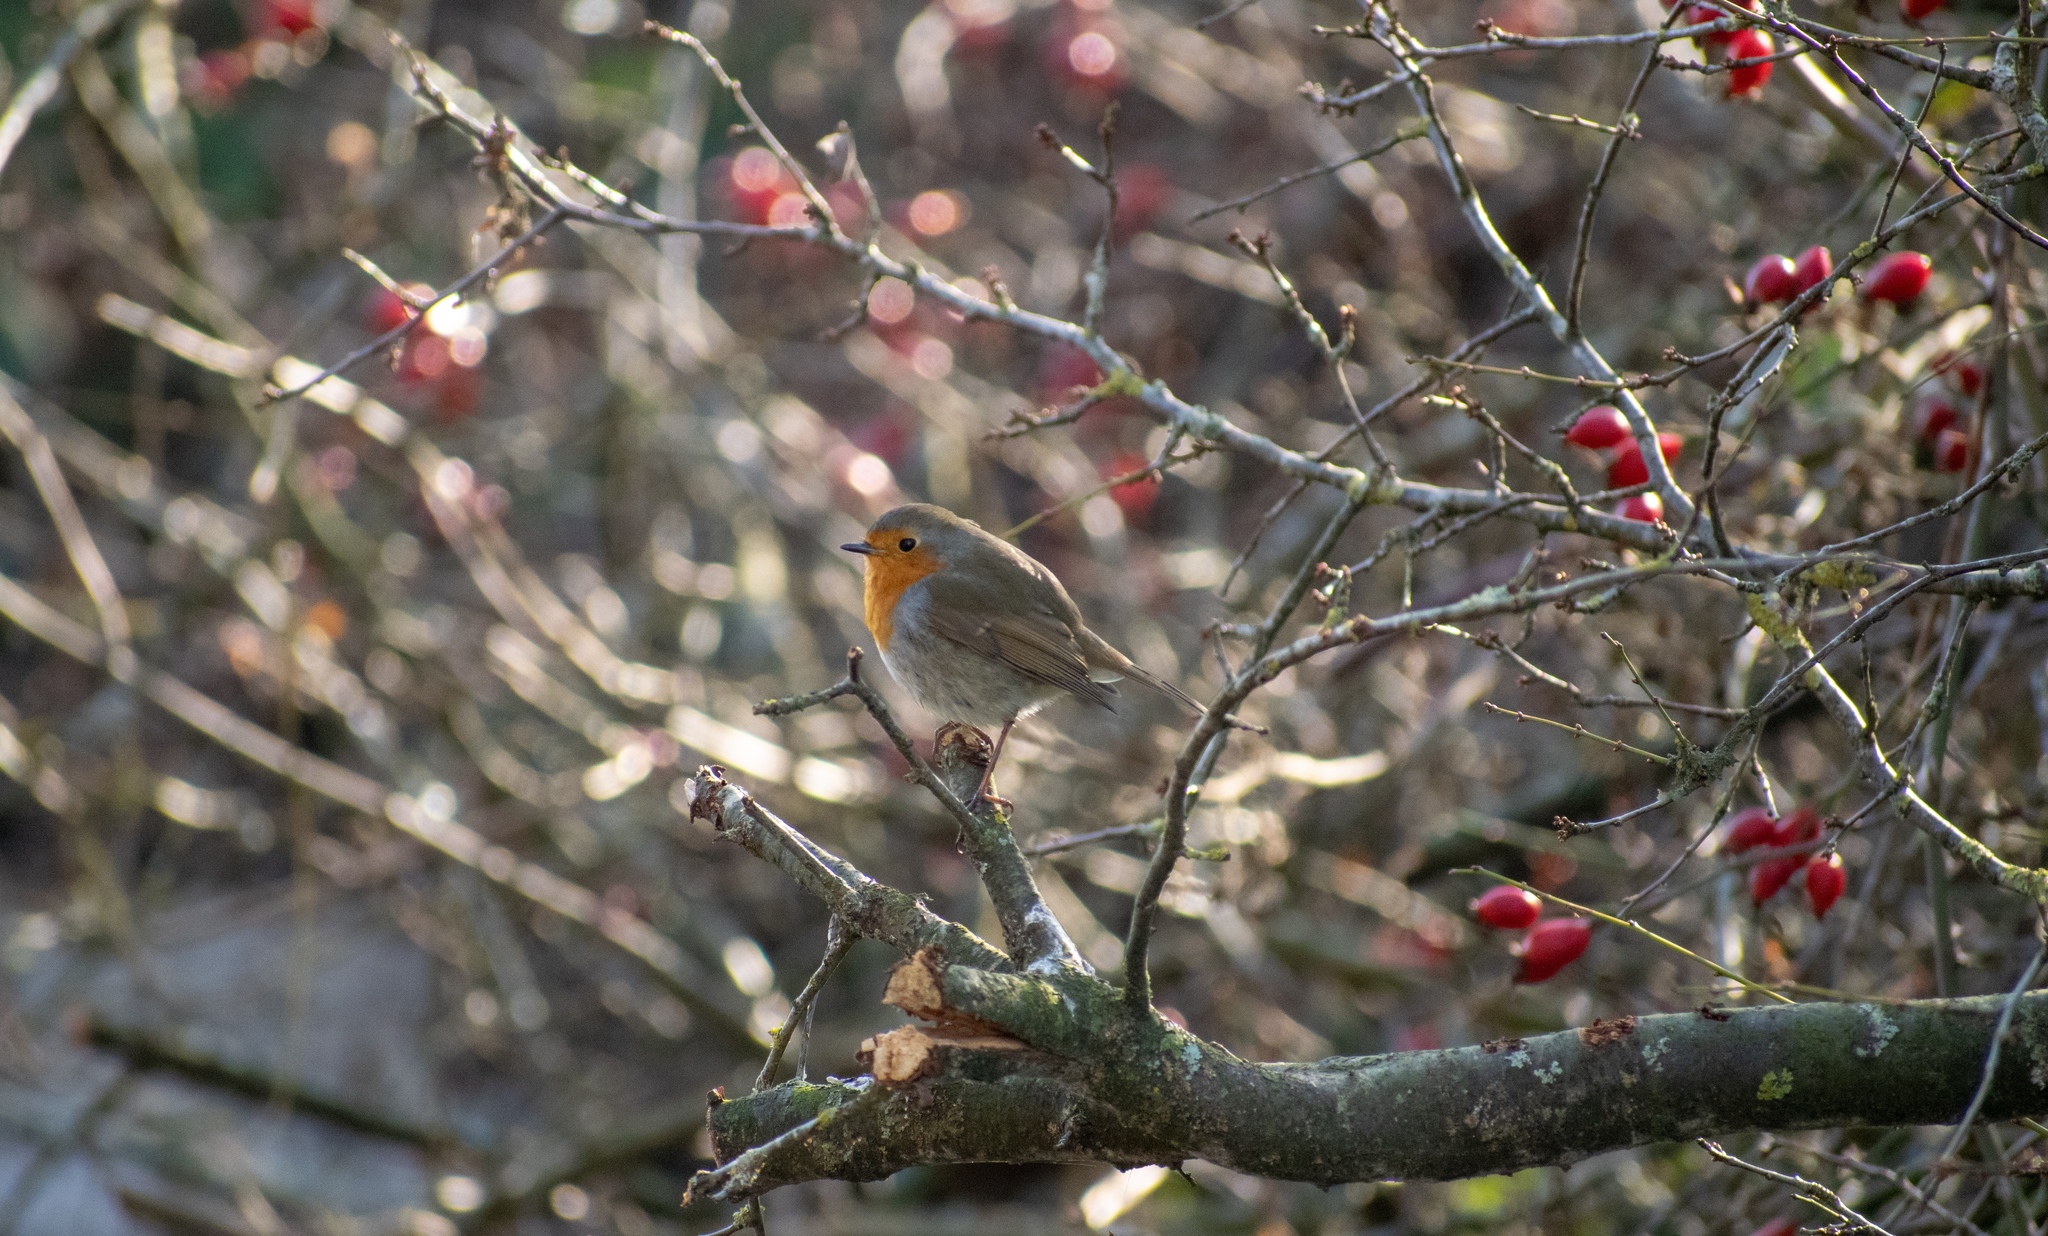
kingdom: Animalia
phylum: Chordata
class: Aves
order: Passeriformes
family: Muscicapidae
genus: Erithacus
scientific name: Erithacus rubecula
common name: European robin
